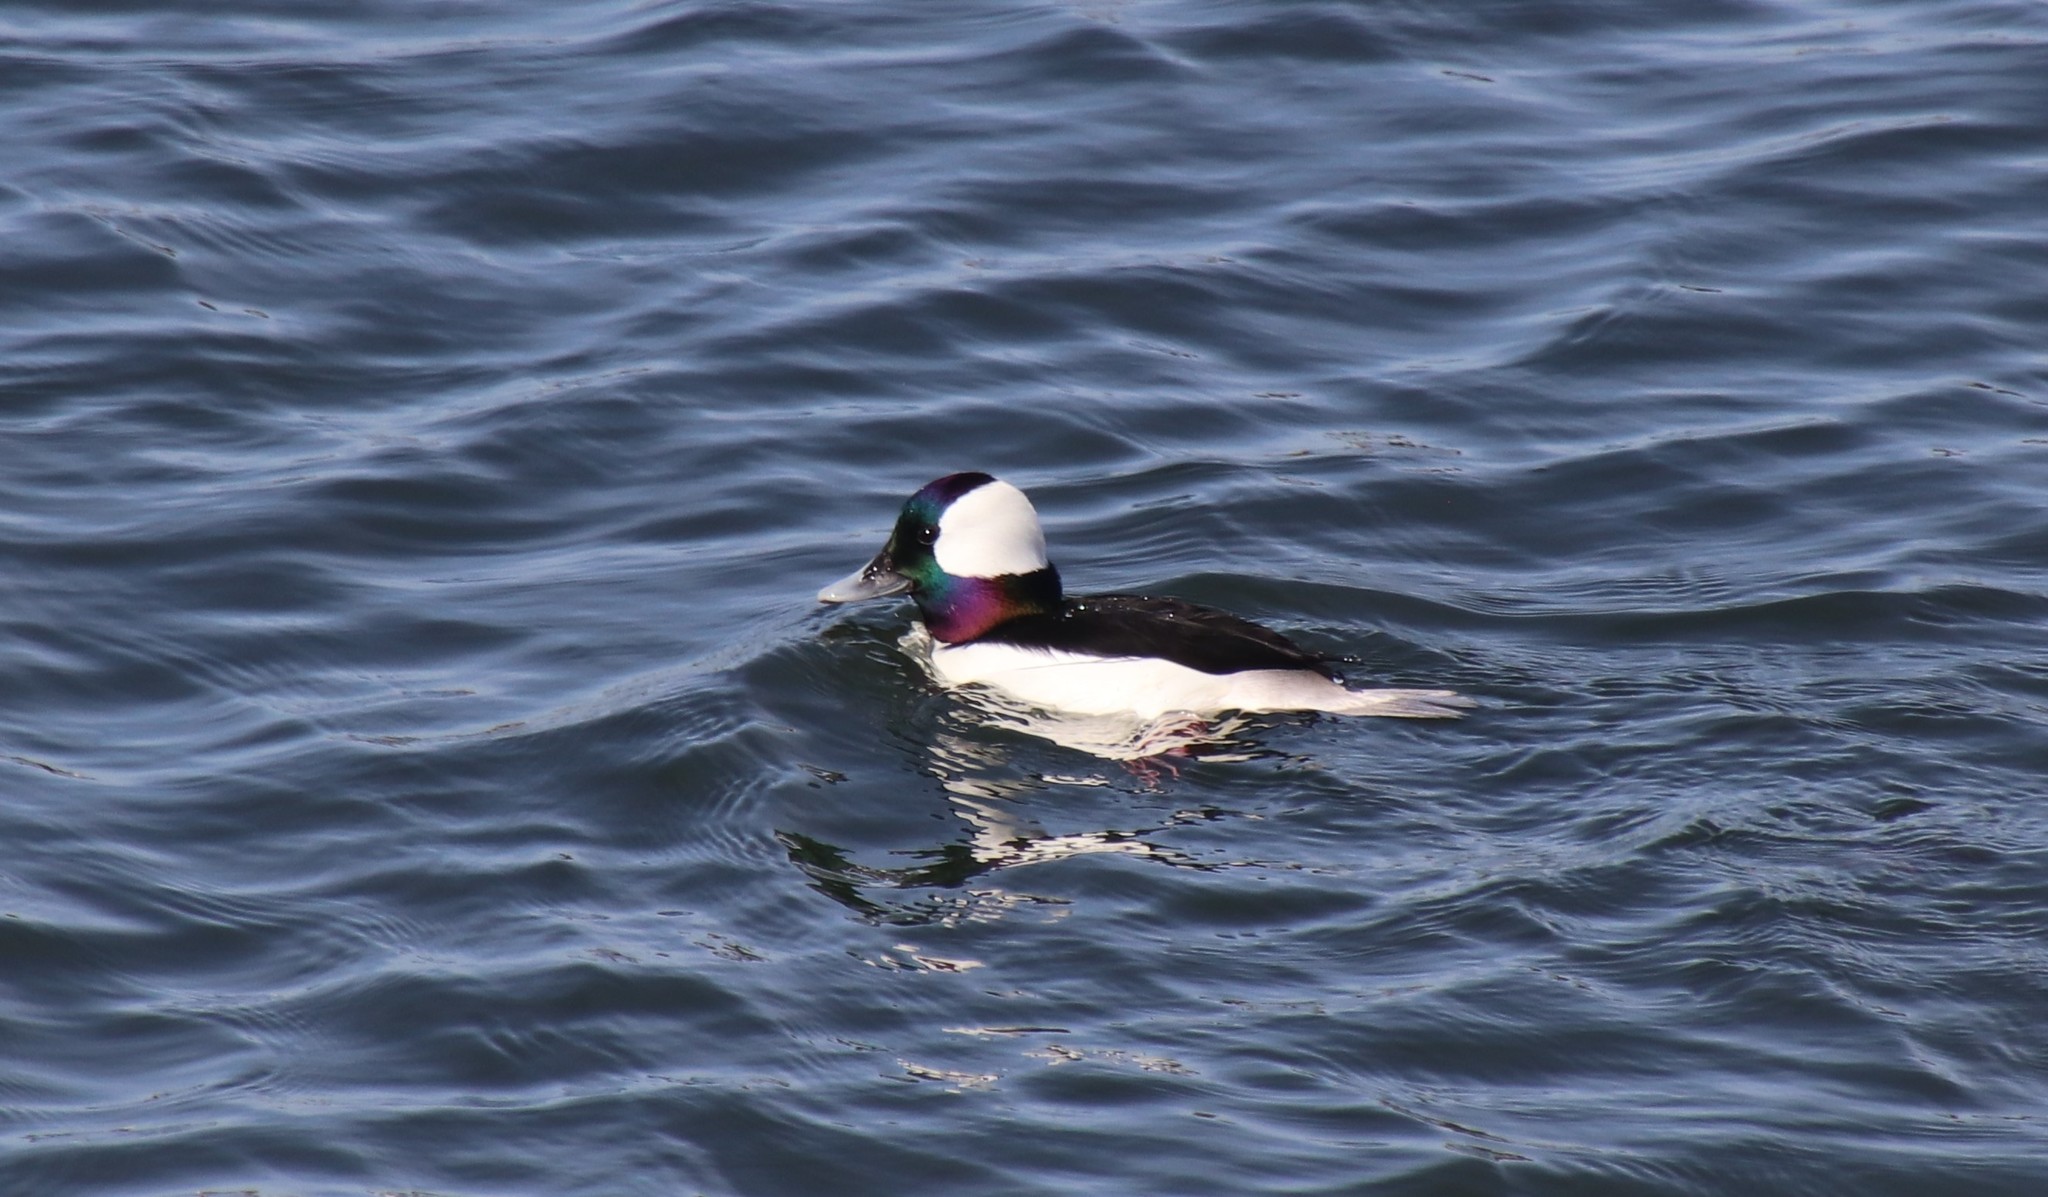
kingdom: Animalia
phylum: Chordata
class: Aves
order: Anseriformes
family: Anatidae
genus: Bucephala
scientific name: Bucephala albeola
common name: Bufflehead
